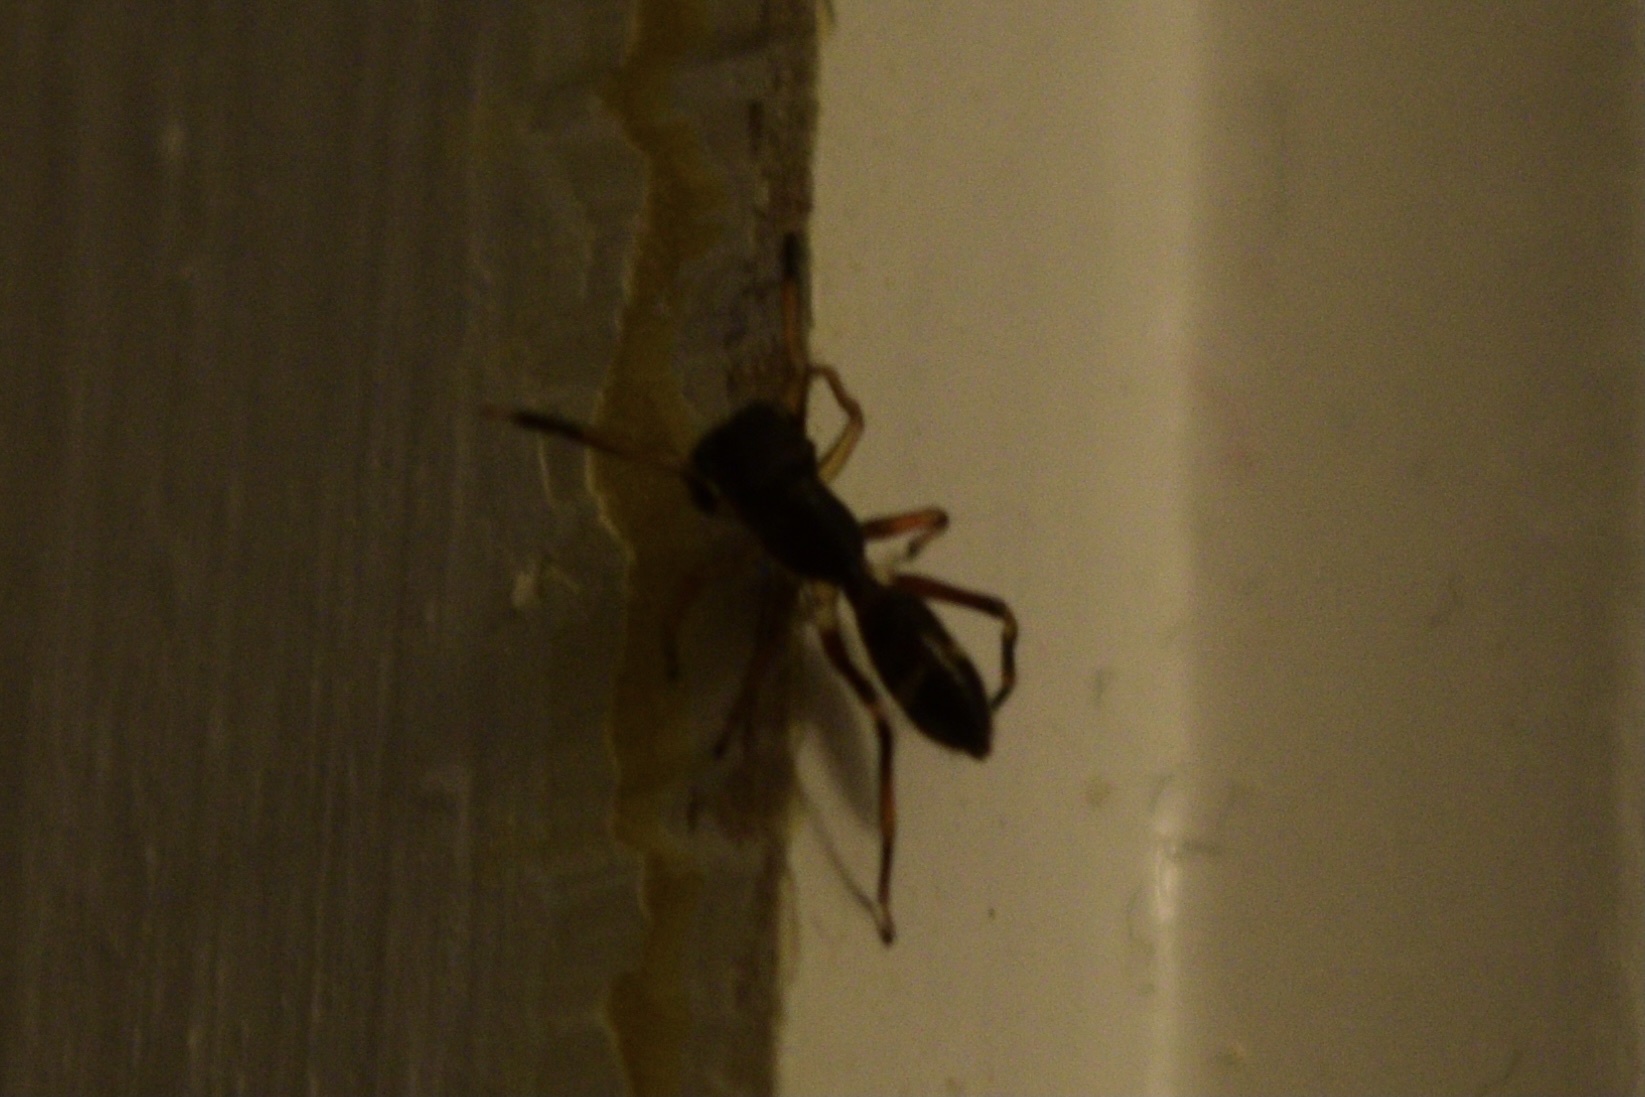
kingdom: Animalia
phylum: Arthropoda
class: Arachnida
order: Araneae
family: Salticidae
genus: Myrmarachne
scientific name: Myrmarachne formicaria
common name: Ant mimic jumping spider
